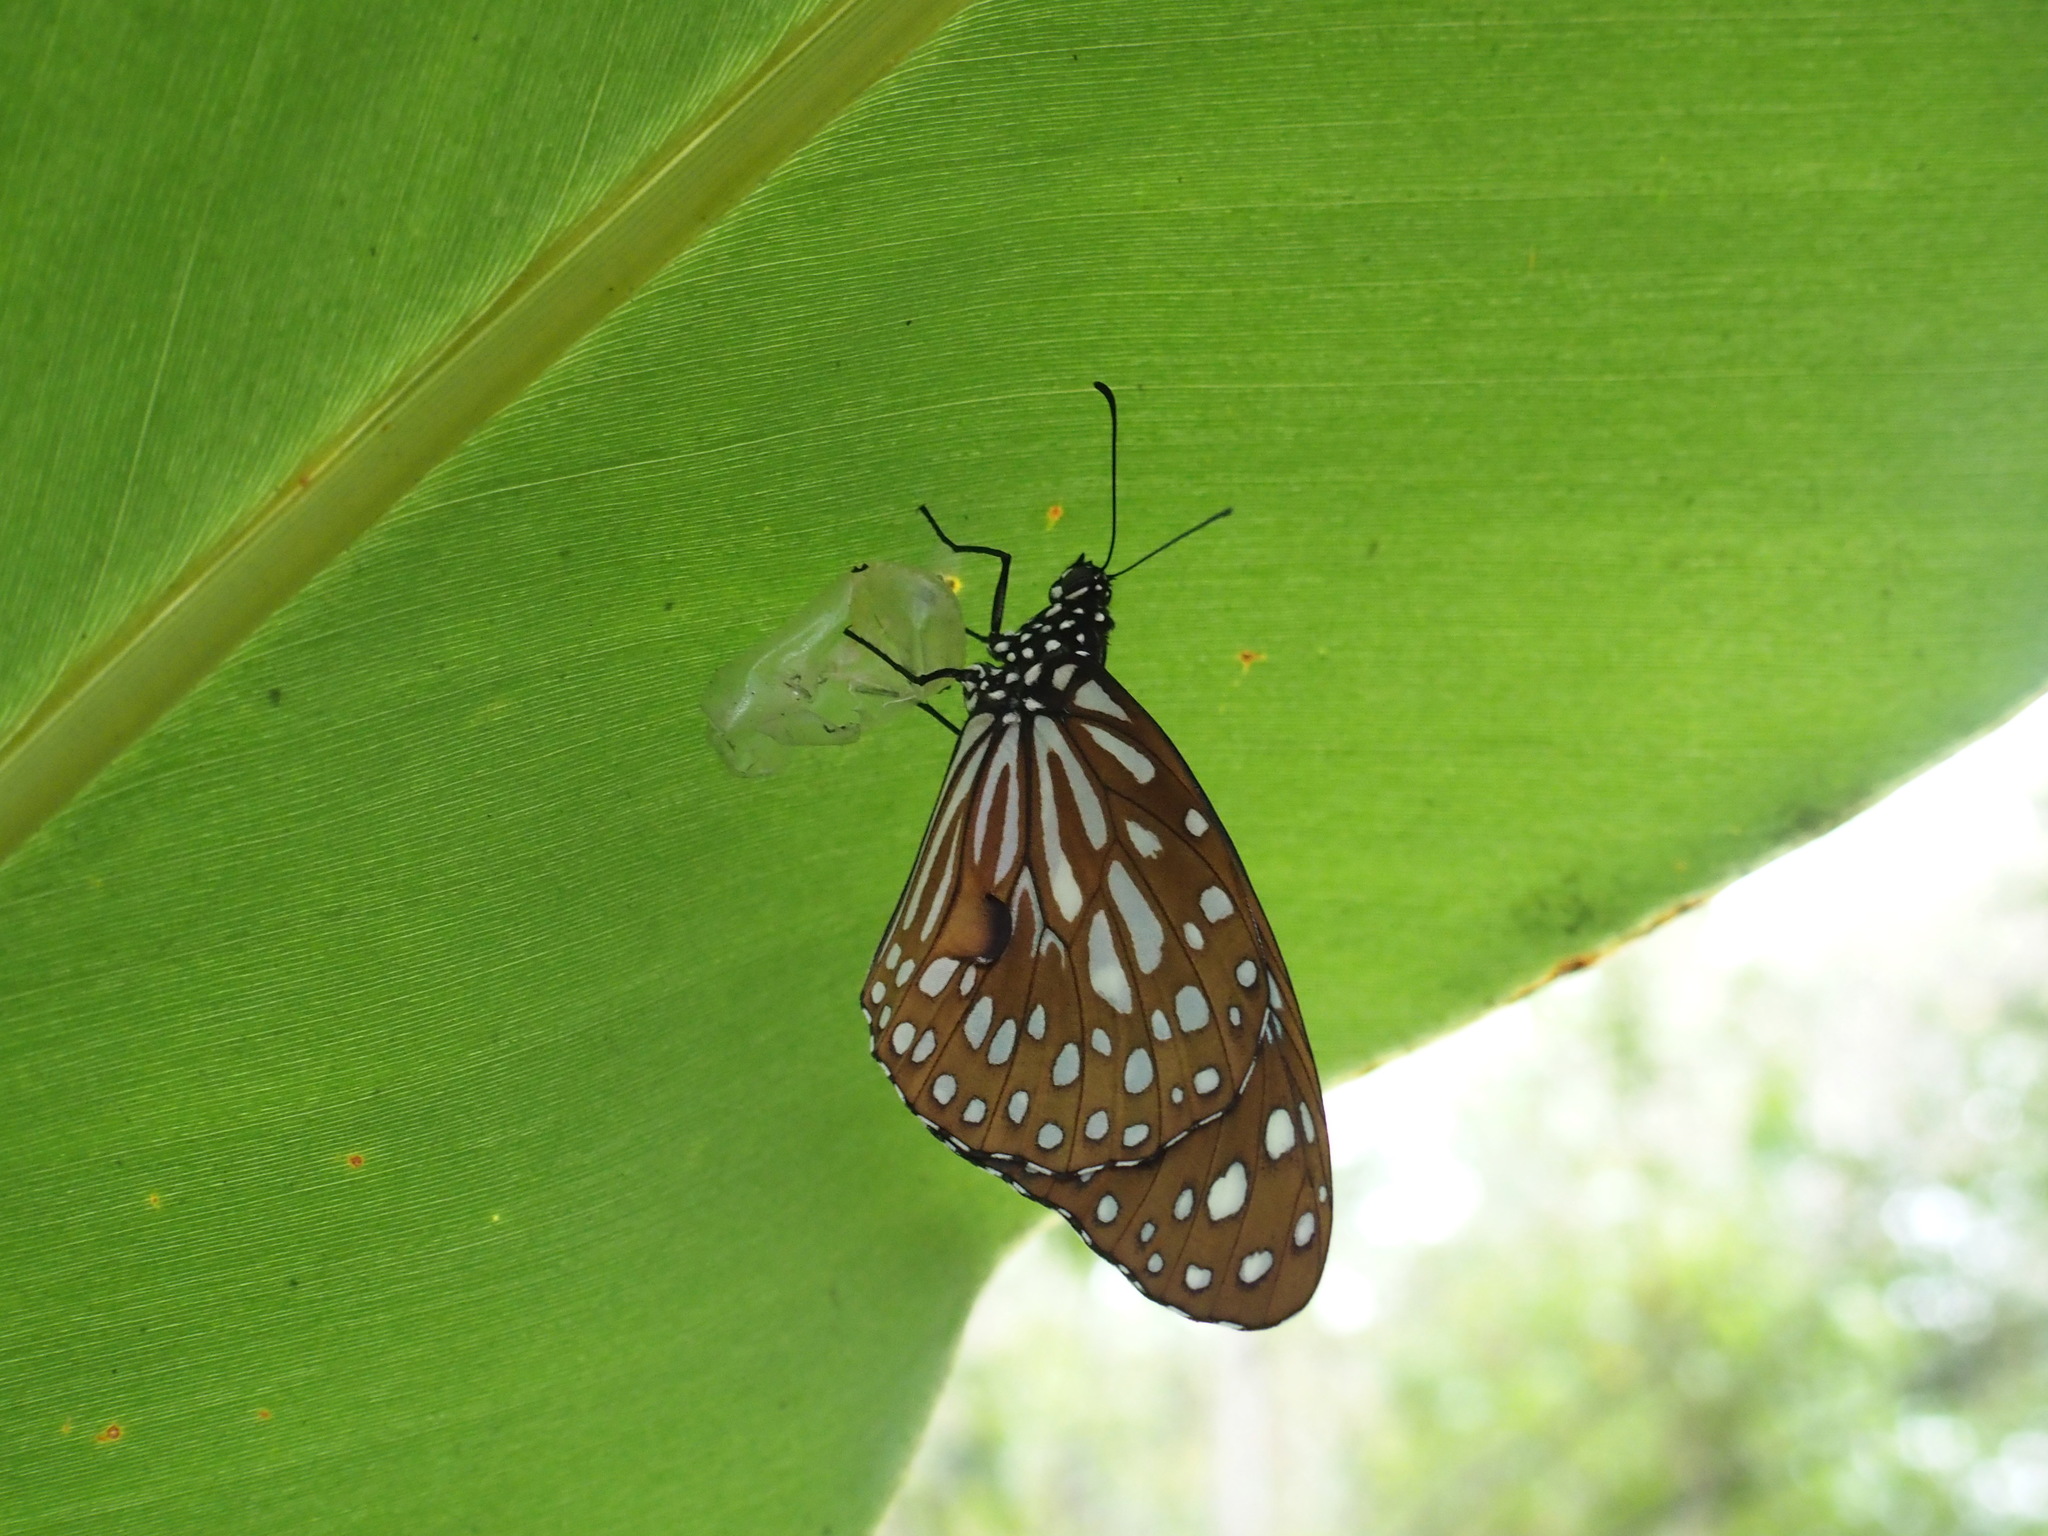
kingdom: Animalia
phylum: Arthropoda
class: Insecta
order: Lepidoptera
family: Nymphalidae
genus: Tirumala
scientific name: Tirumala limniace
